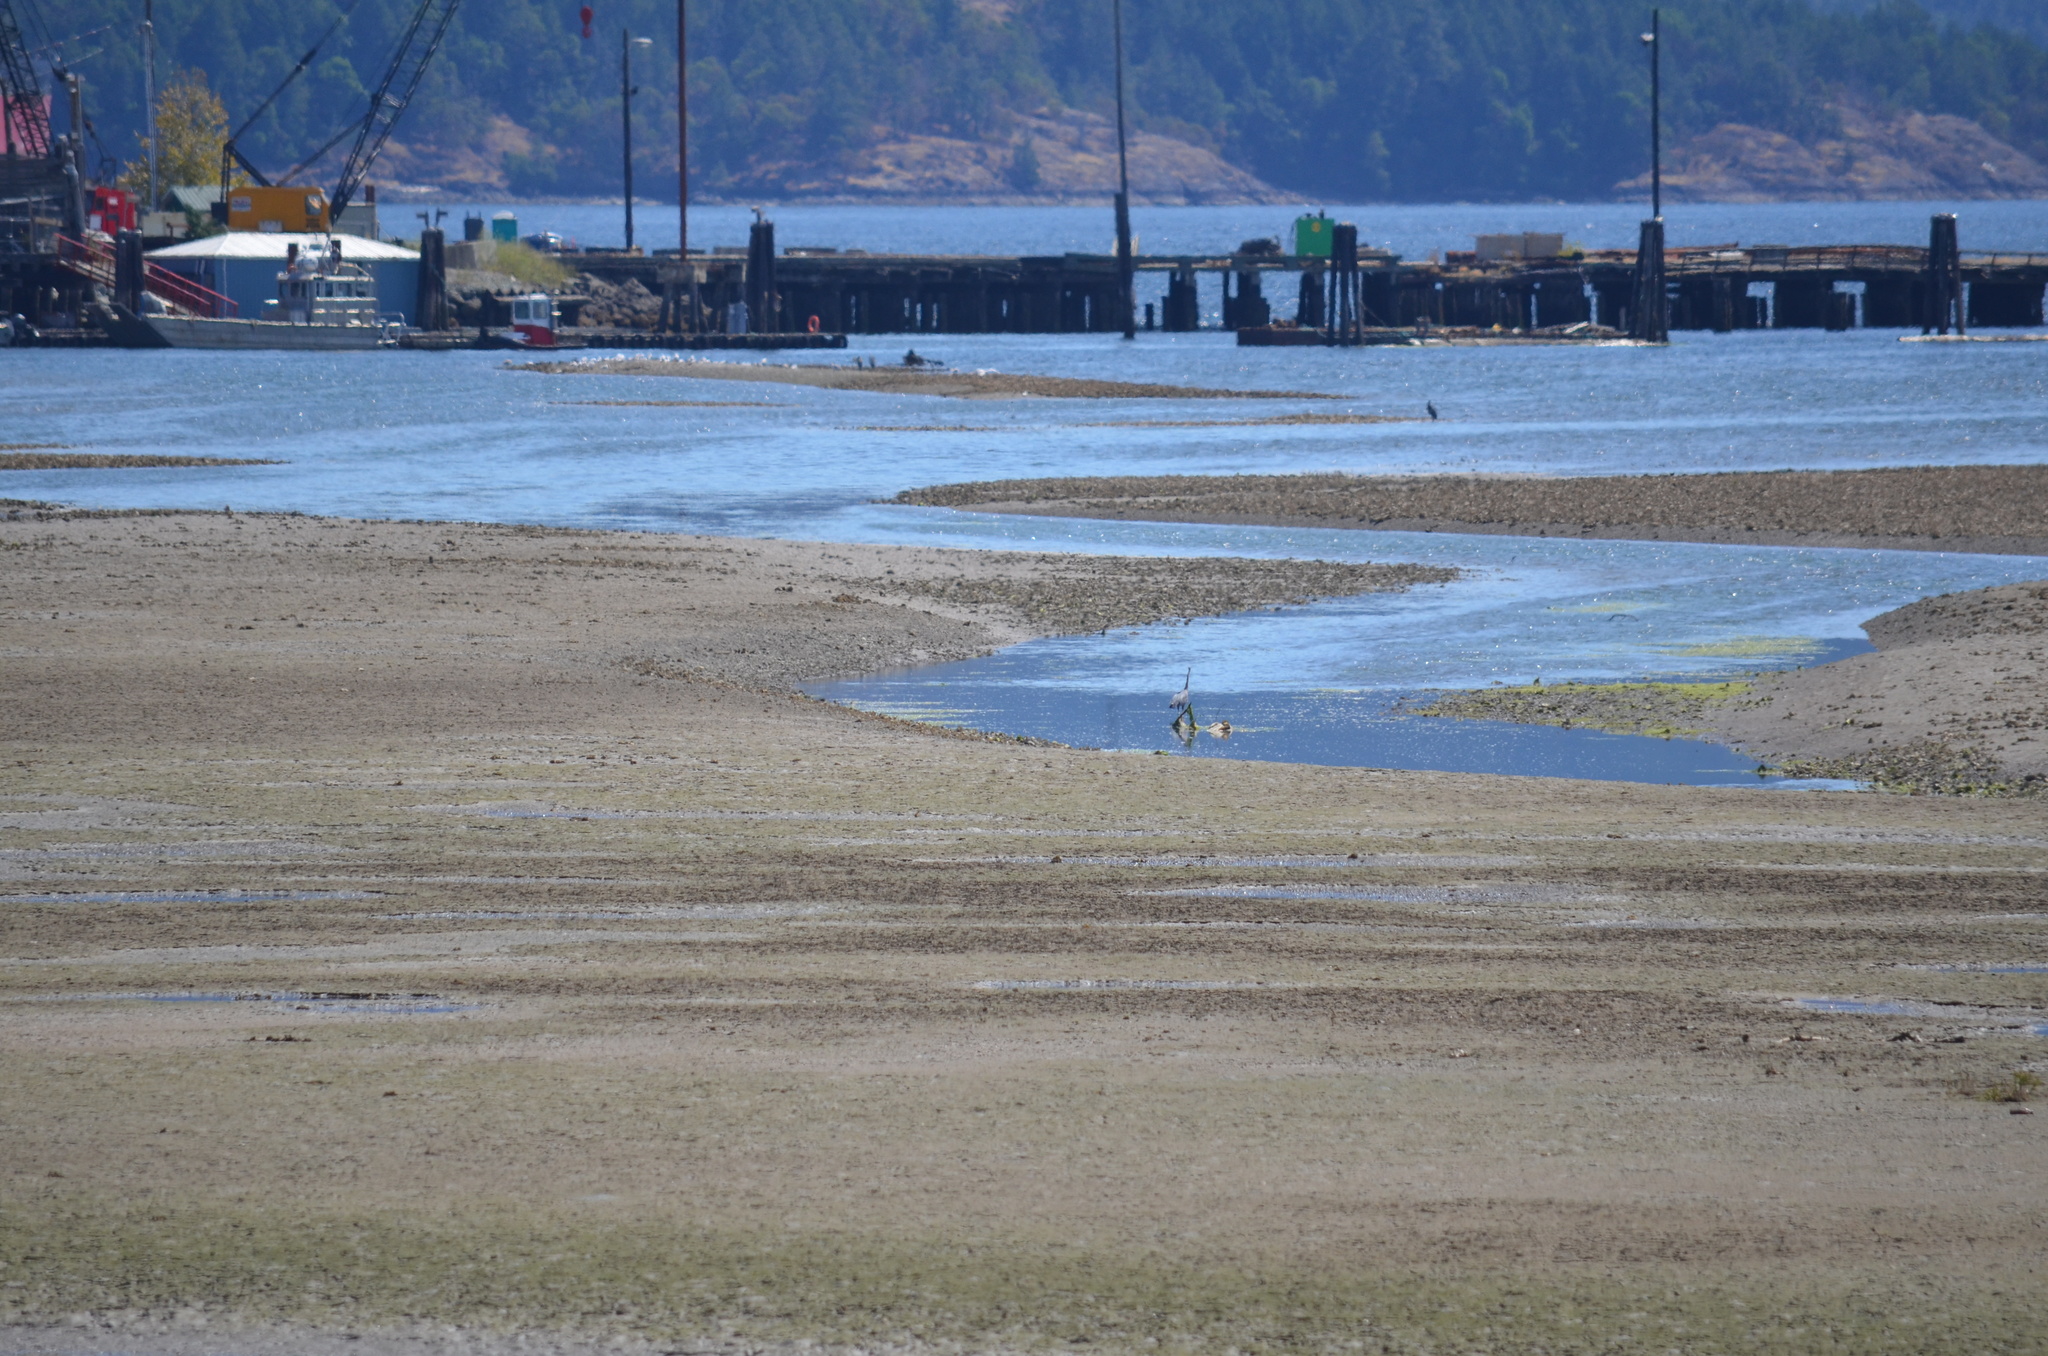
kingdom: Animalia
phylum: Chordata
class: Aves
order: Pelecaniformes
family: Ardeidae
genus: Ardea
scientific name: Ardea herodias
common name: Great blue heron
